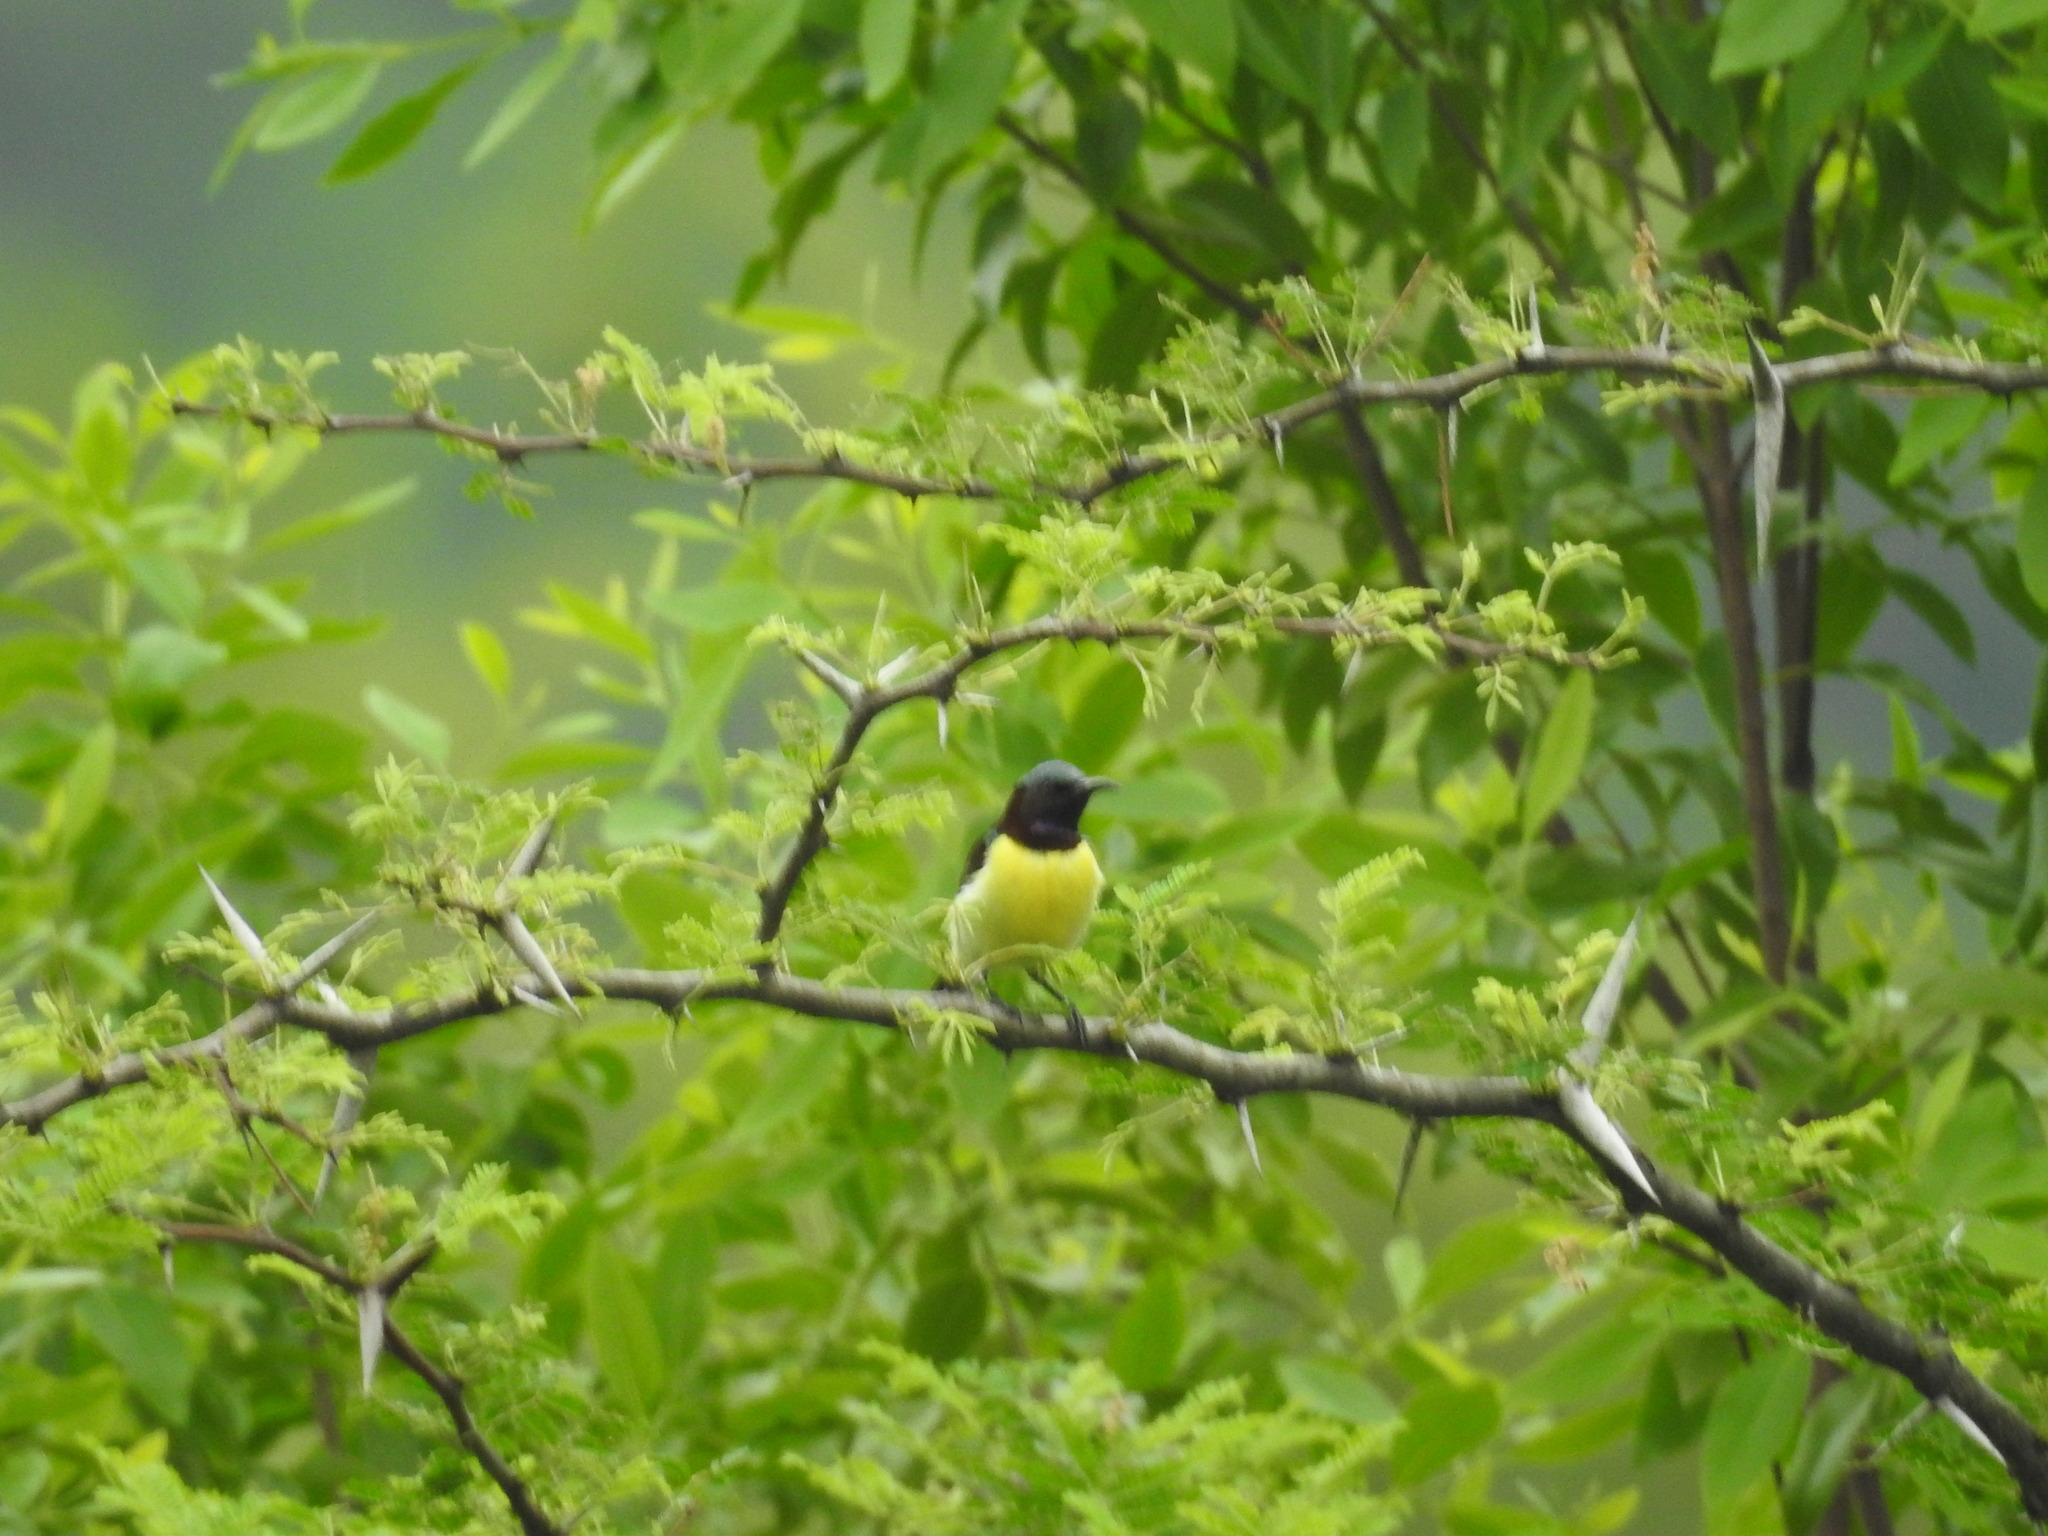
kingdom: Animalia
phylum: Chordata
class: Aves
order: Passeriformes
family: Nectariniidae
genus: Leptocoma
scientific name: Leptocoma zeylonica
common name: Purple-rumped sunbird
